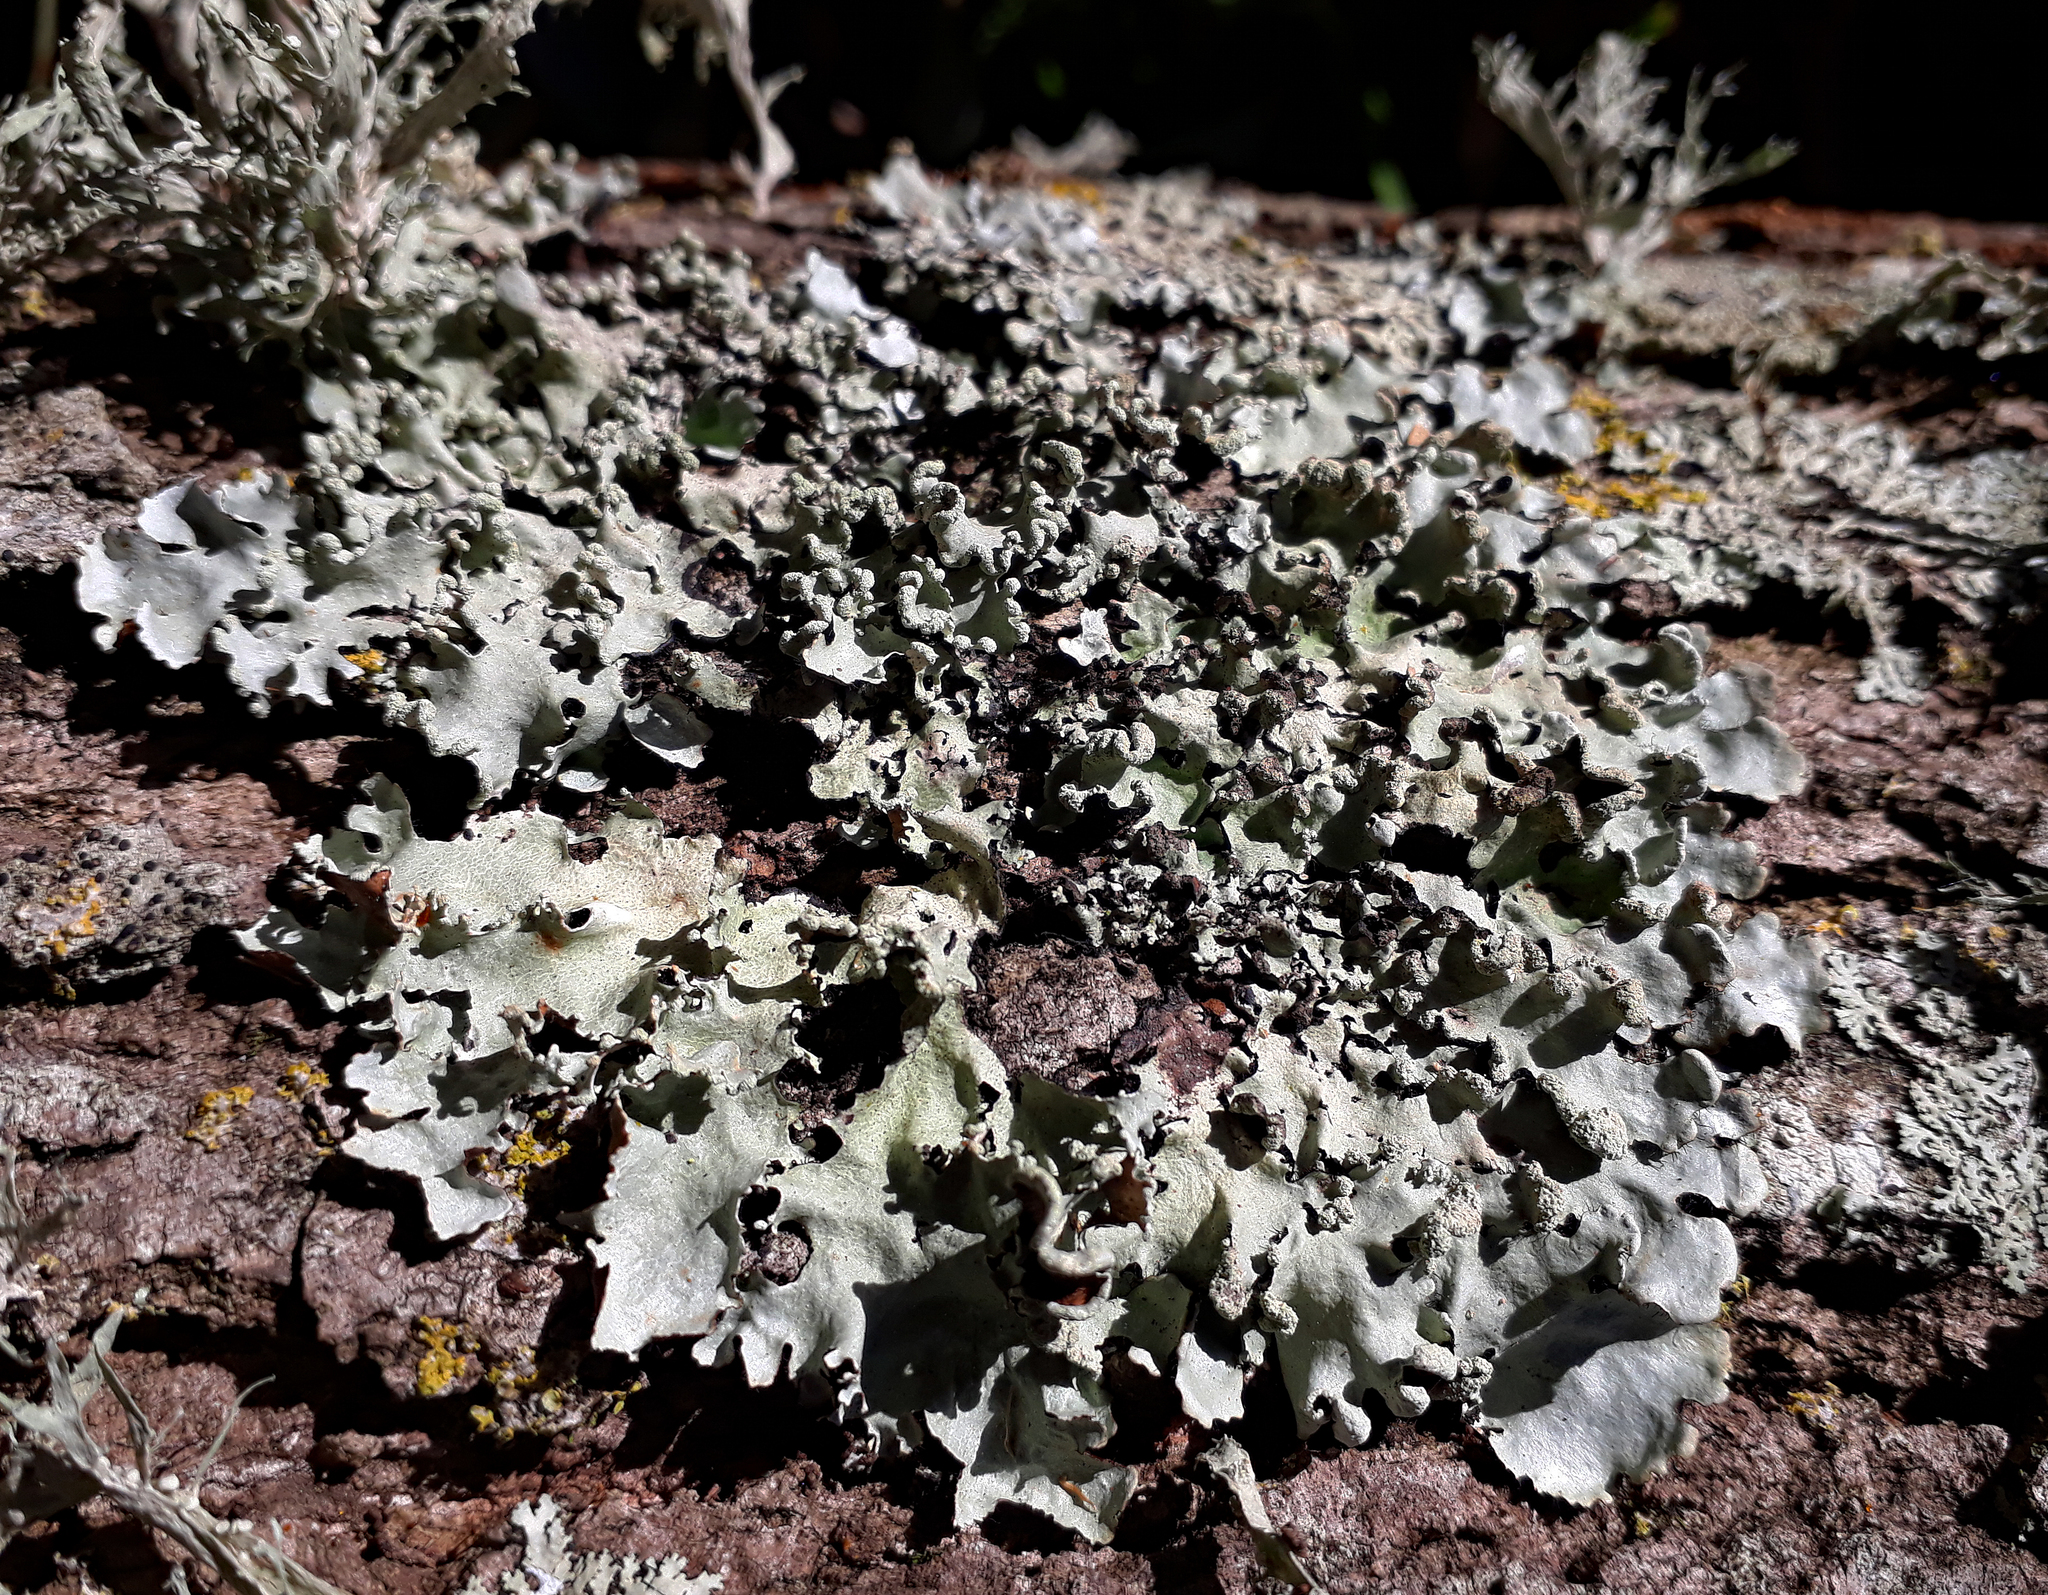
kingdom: Fungi
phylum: Ascomycota
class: Lecanoromycetes
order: Lecanorales
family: Parmeliaceae
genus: Parmotrema
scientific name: Parmotrema perlatum
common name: Black stone flower
